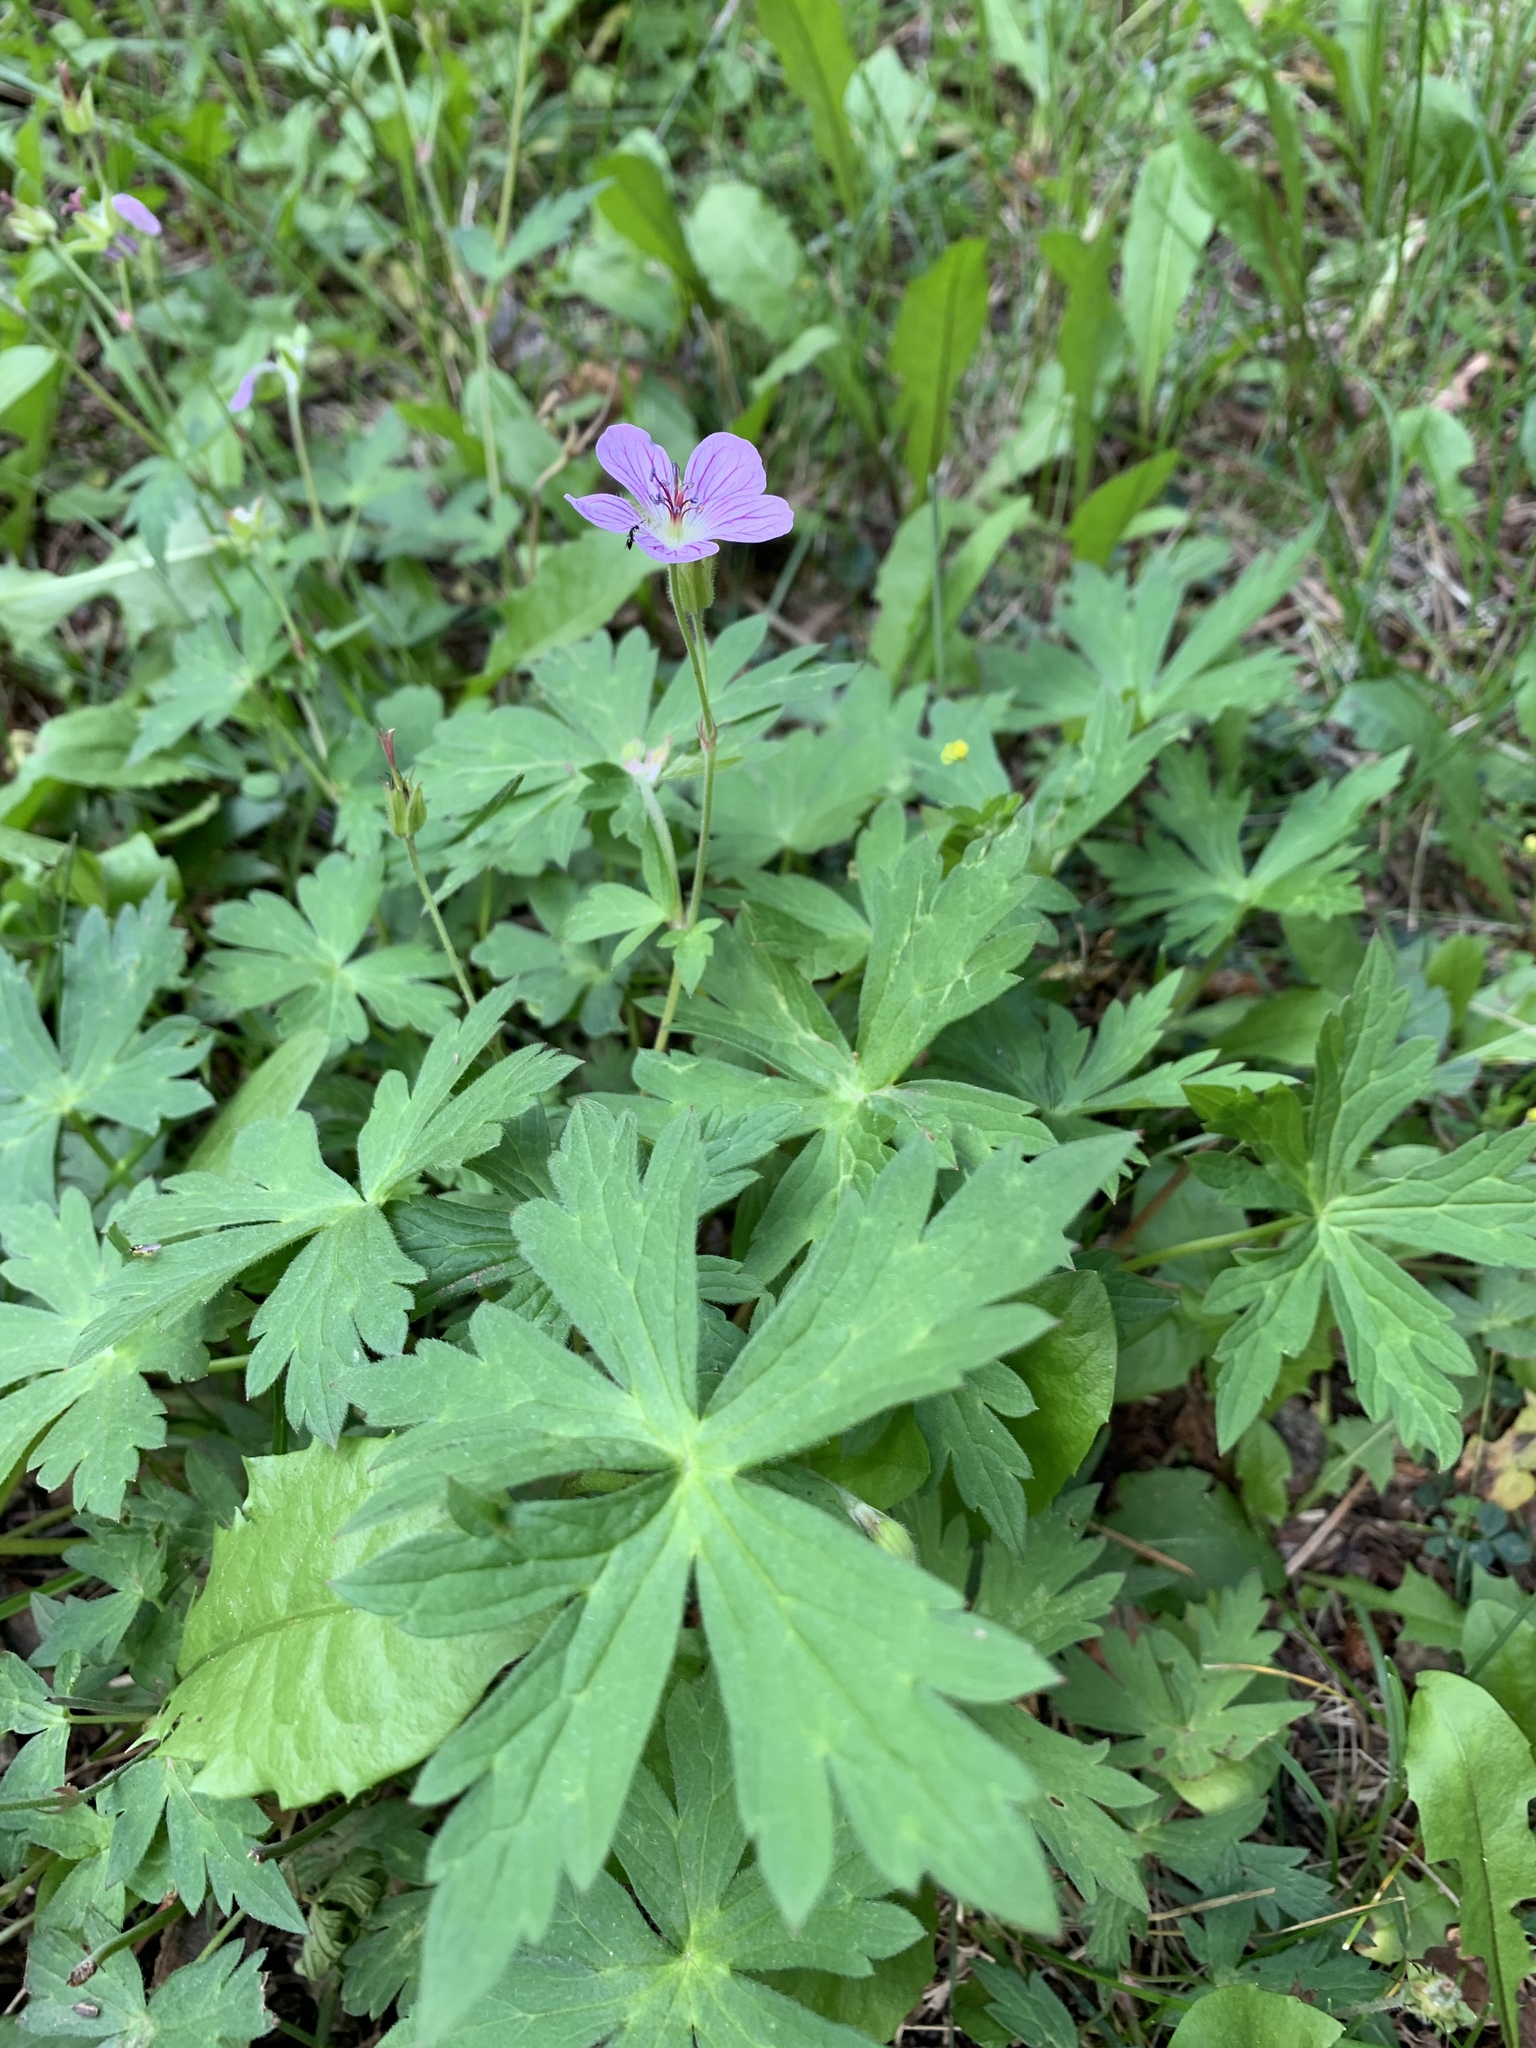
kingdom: Plantae
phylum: Tracheophyta
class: Magnoliopsida
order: Geraniales
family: Geraniaceae
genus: Geranium
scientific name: Geranium richardsonii
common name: Richardson's crane's-bill
